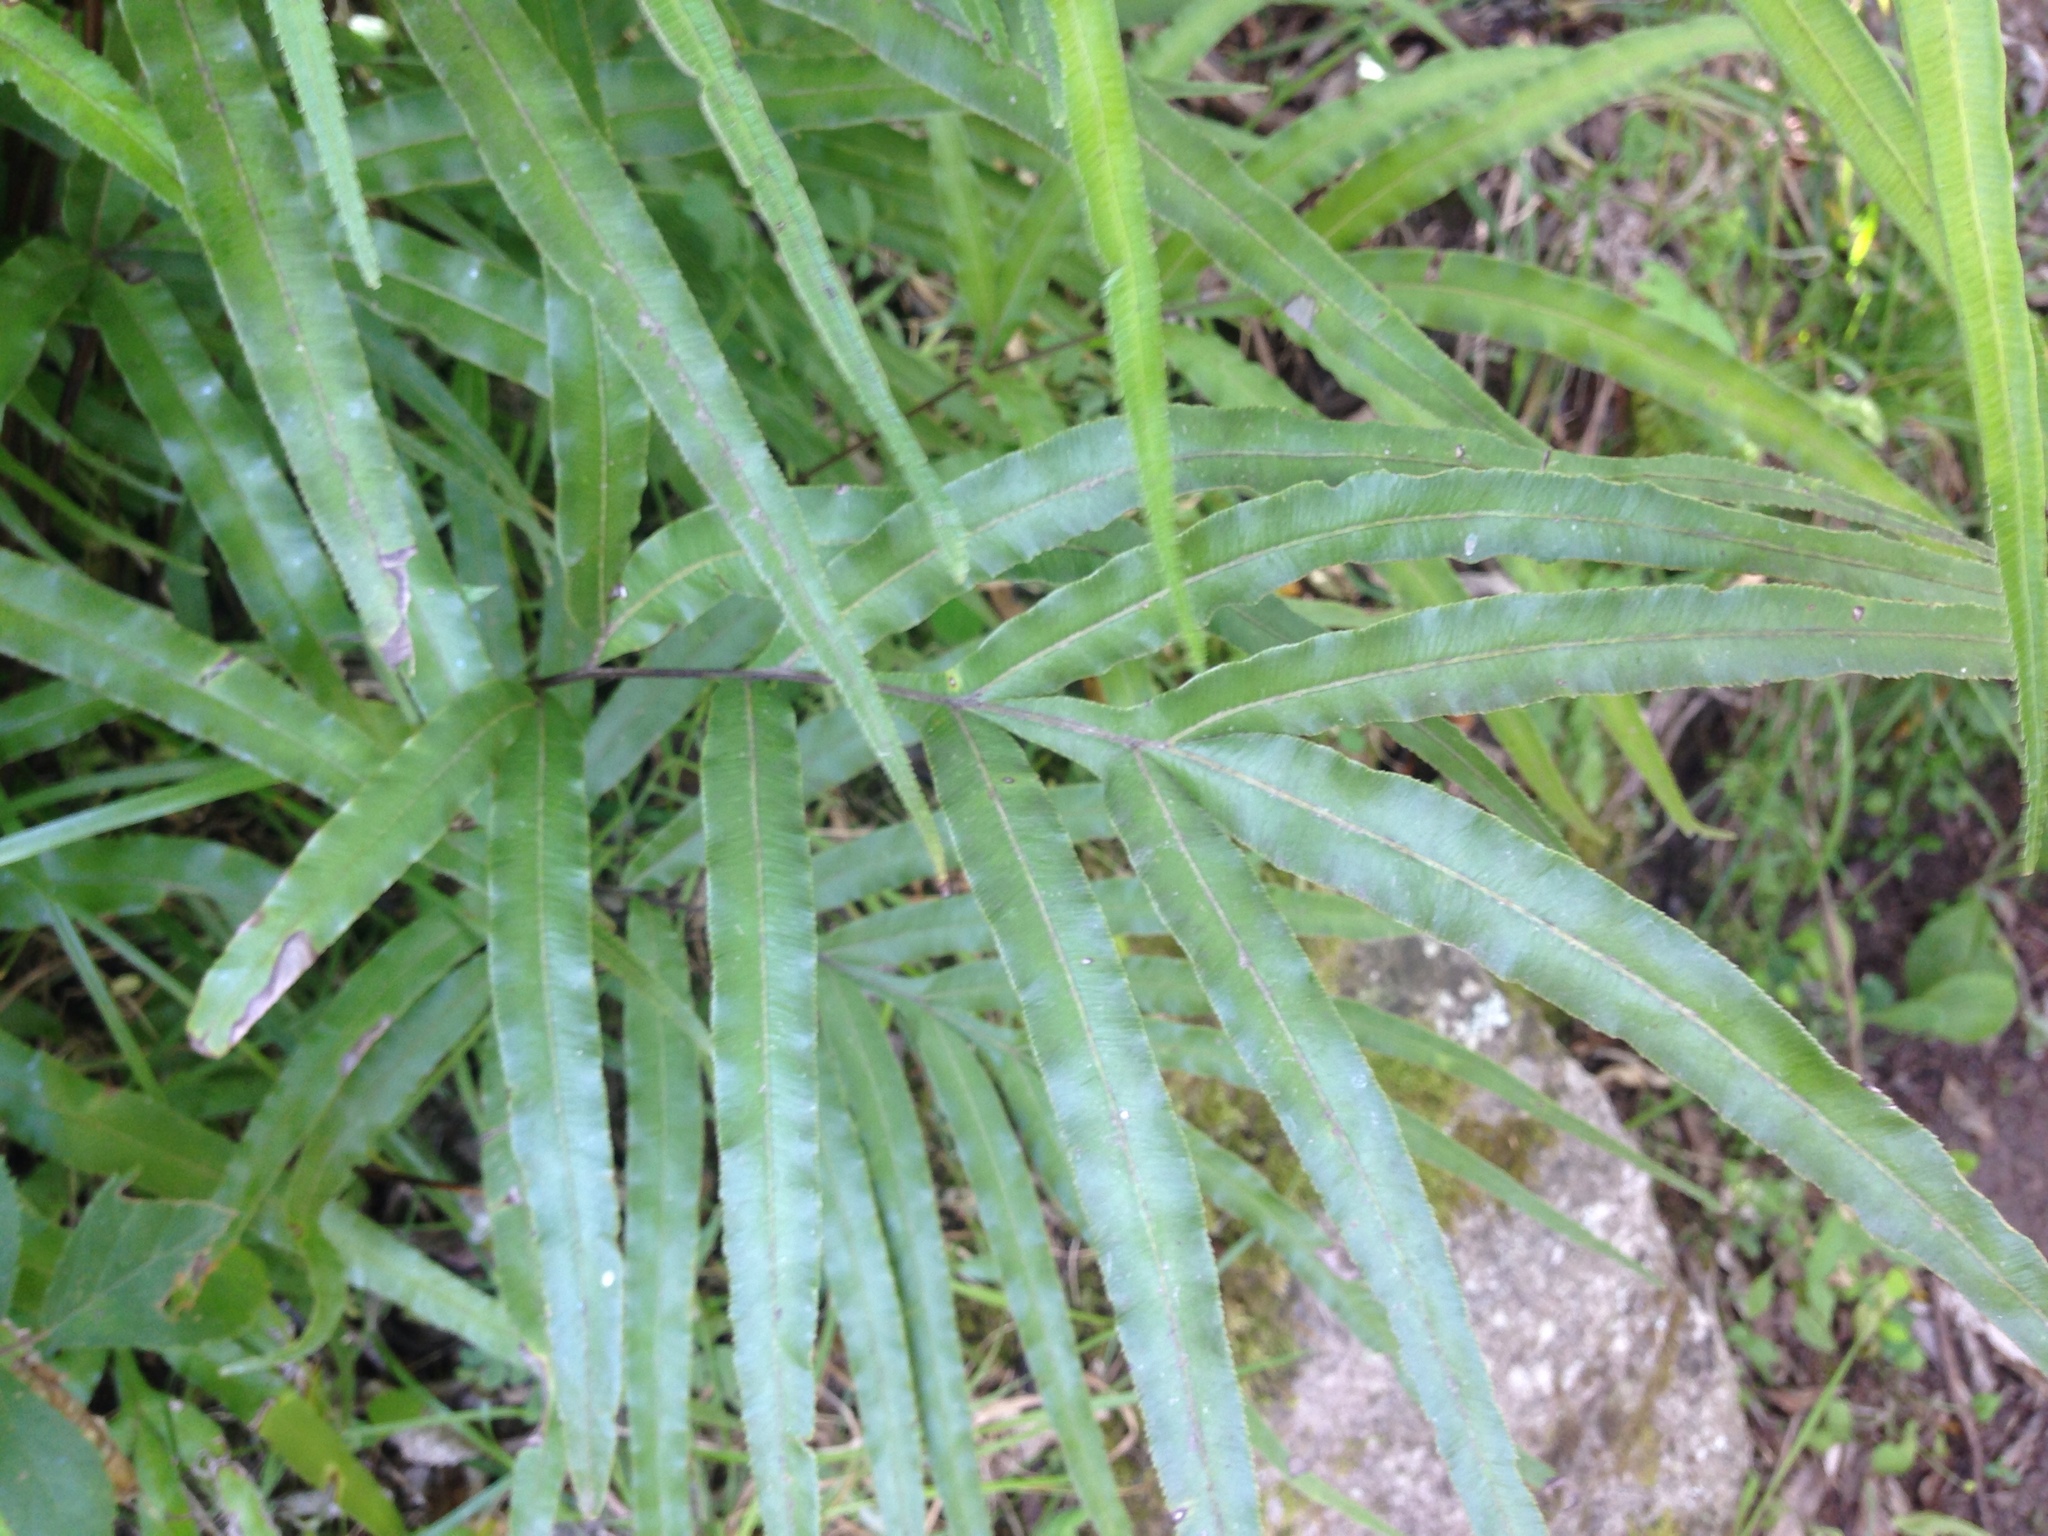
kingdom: Plantae
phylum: Tracheophyta
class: Polypodiopsida
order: Polypodiales
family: Pteridaceae
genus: Pteris
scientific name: Pteris cretica
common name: Ribbon fern
